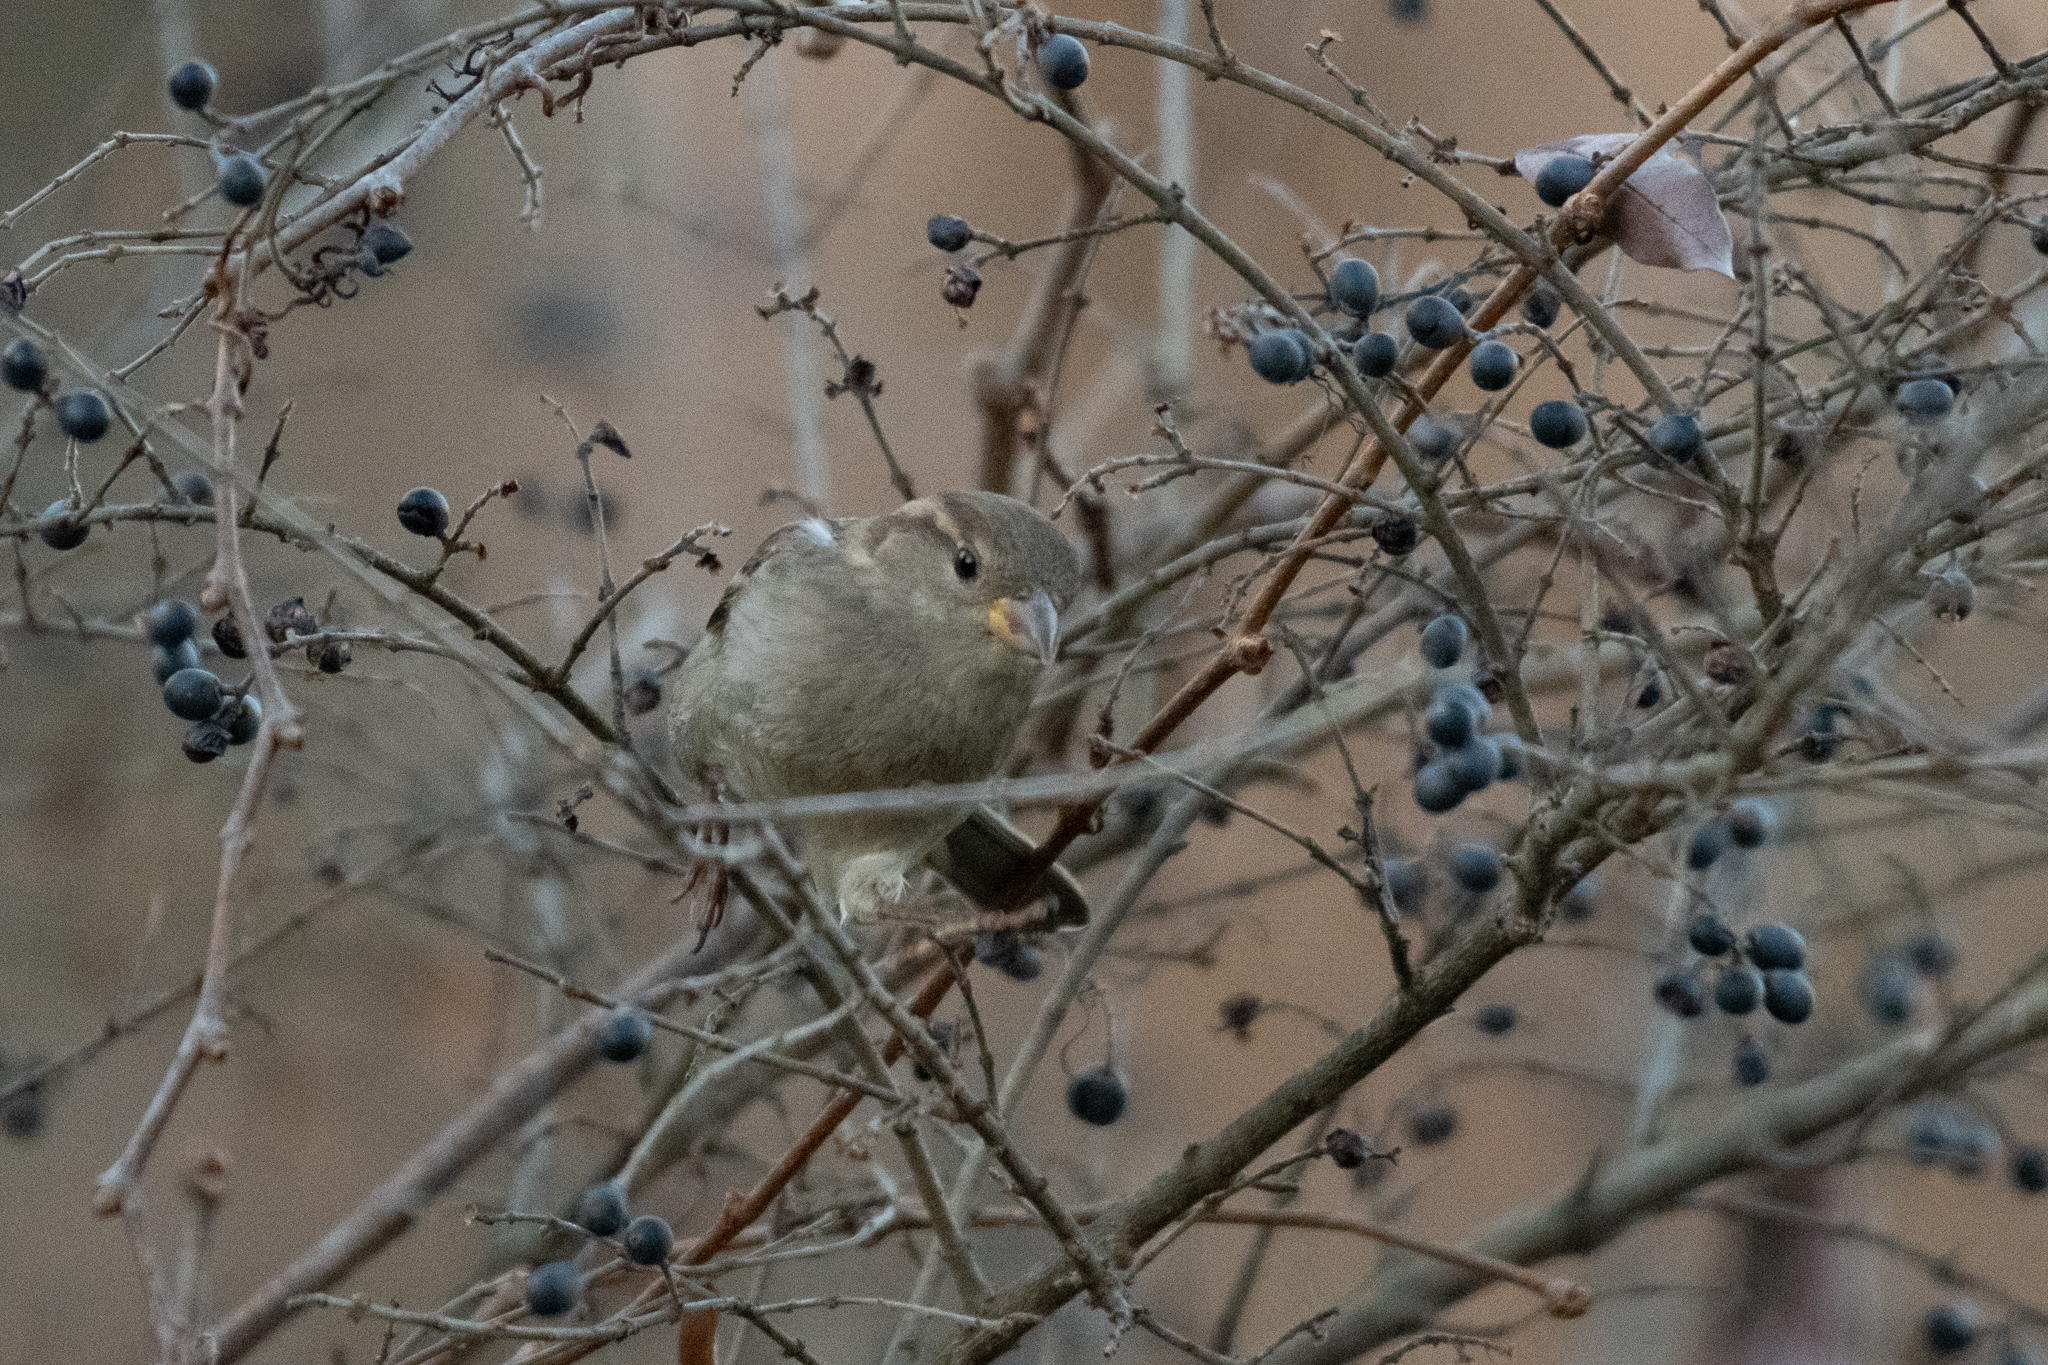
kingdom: Animalia
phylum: Chordata
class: Aves
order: Passeriformes
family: Passeridae
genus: Passer
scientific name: Passer domesticus
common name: House sparrow
